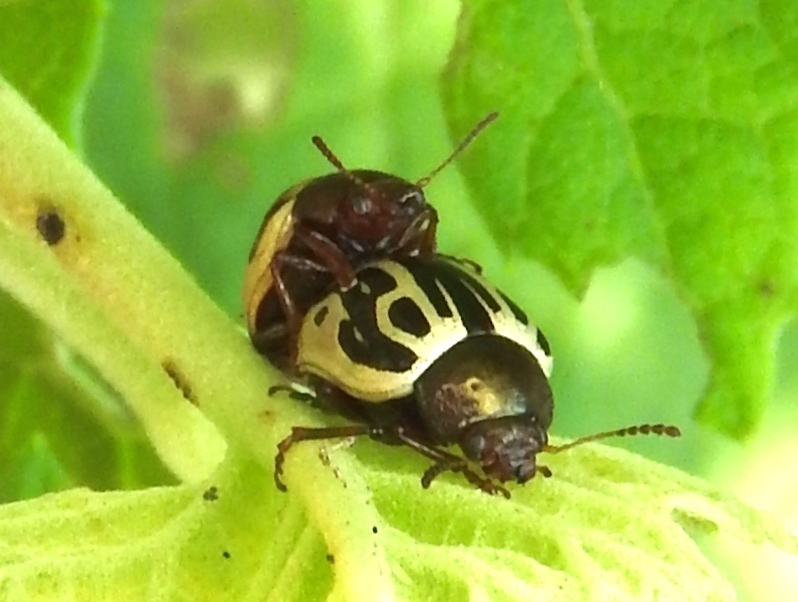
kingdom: Animalia
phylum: Arthropoda
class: Insecta
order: Coleoptera
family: Chrysomelidae
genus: Calligrapha
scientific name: Calligrapha
